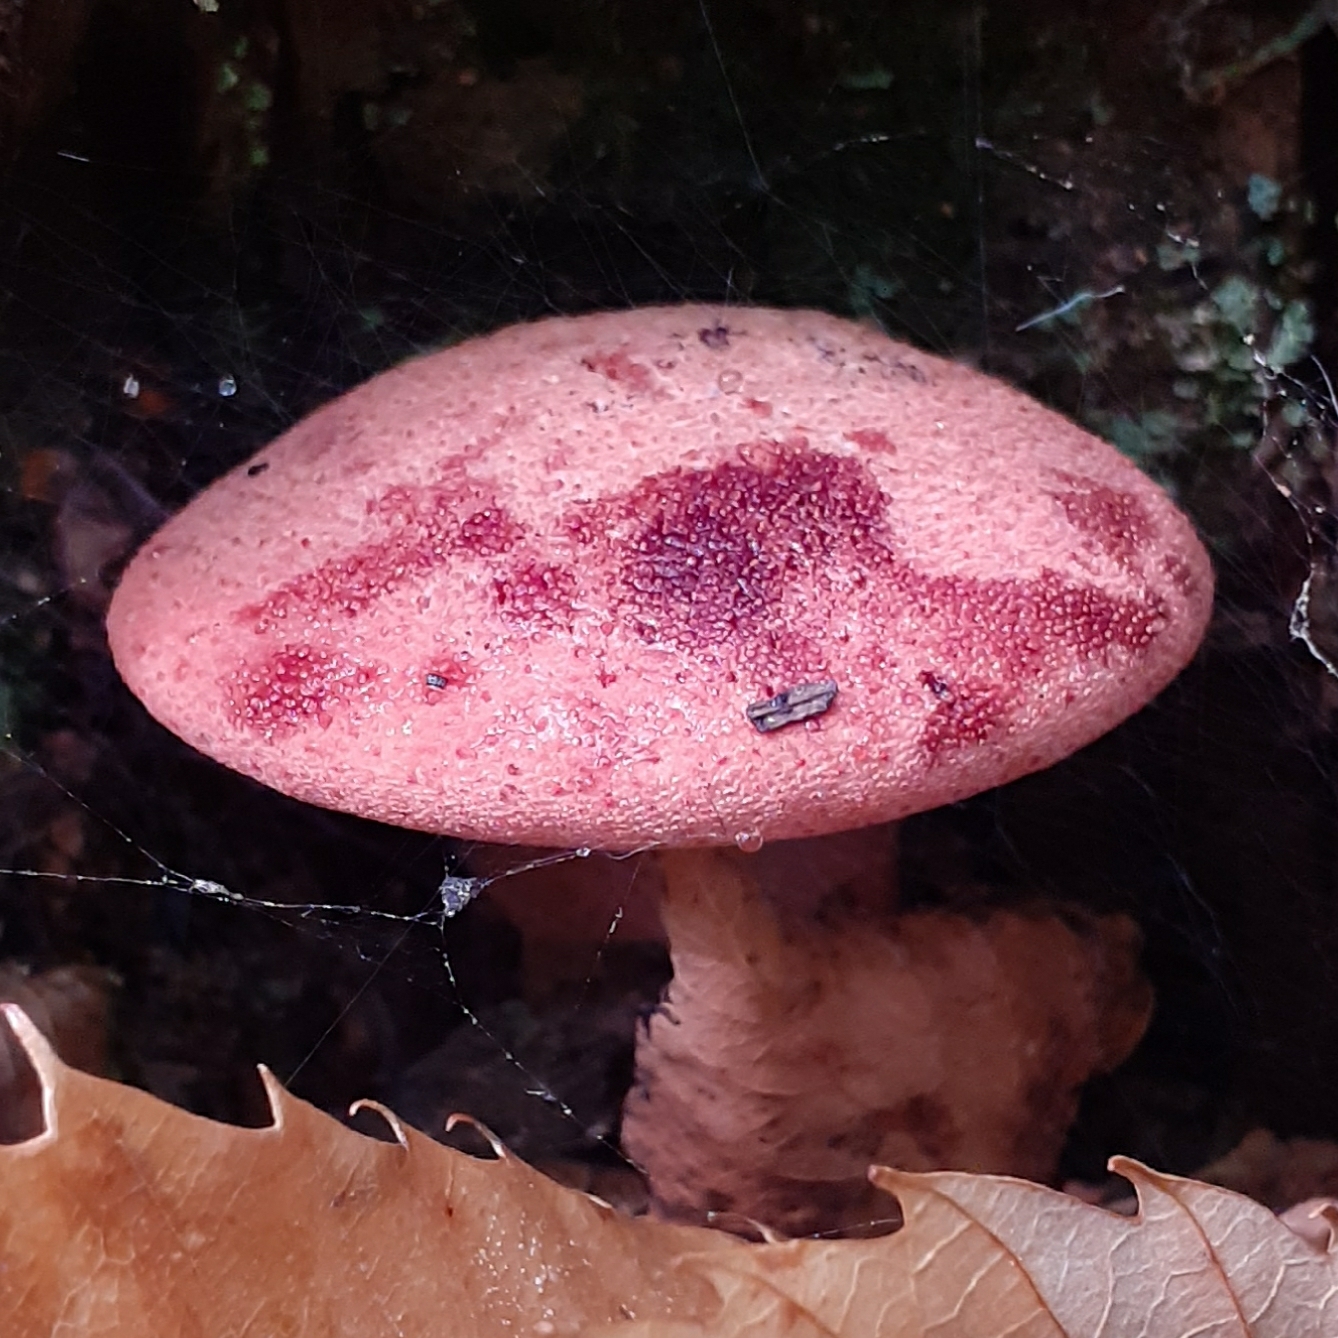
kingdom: Fungi
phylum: Basidiomycota
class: Agaricomycetes
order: Agaricales
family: Fistulinaceae
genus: Fistulina
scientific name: Fistulina hepatica
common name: Beef-steak fungus
